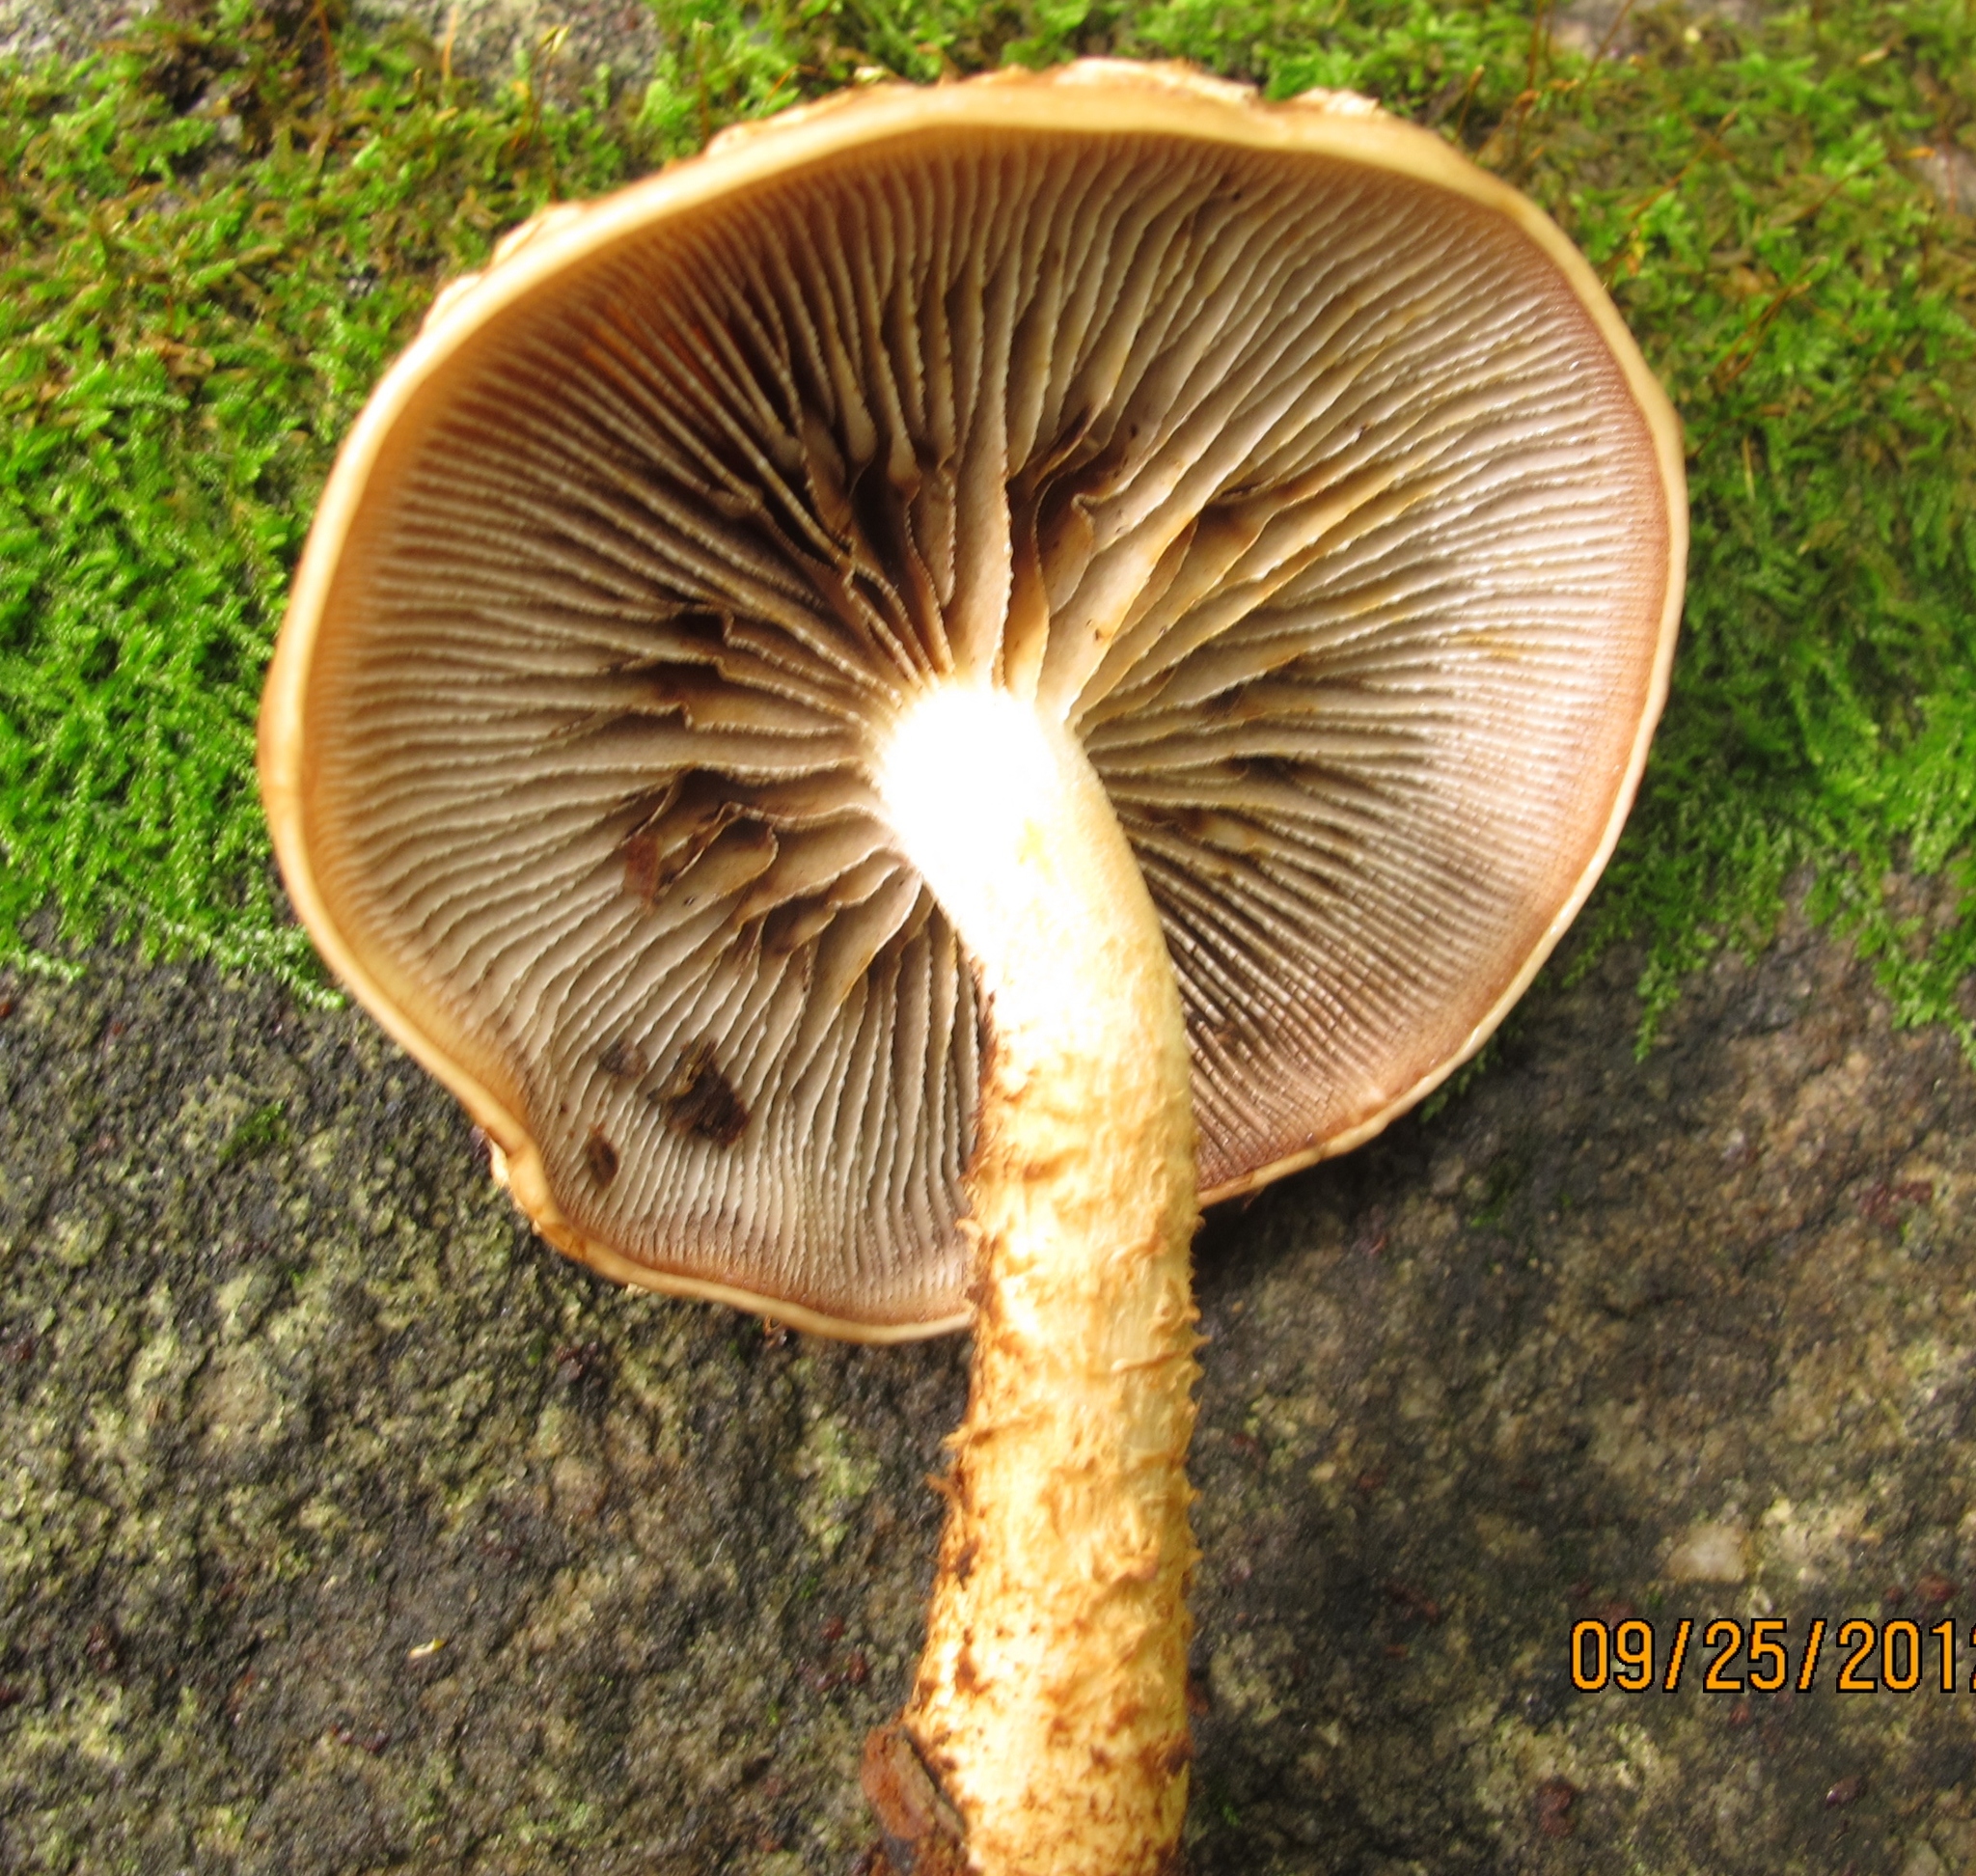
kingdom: Fungi
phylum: Basidiomycota
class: Agaricomycetes
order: Agaricales
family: Tubariaceae
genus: Hemistropharia
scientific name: Hemistropharia albocrenulata
